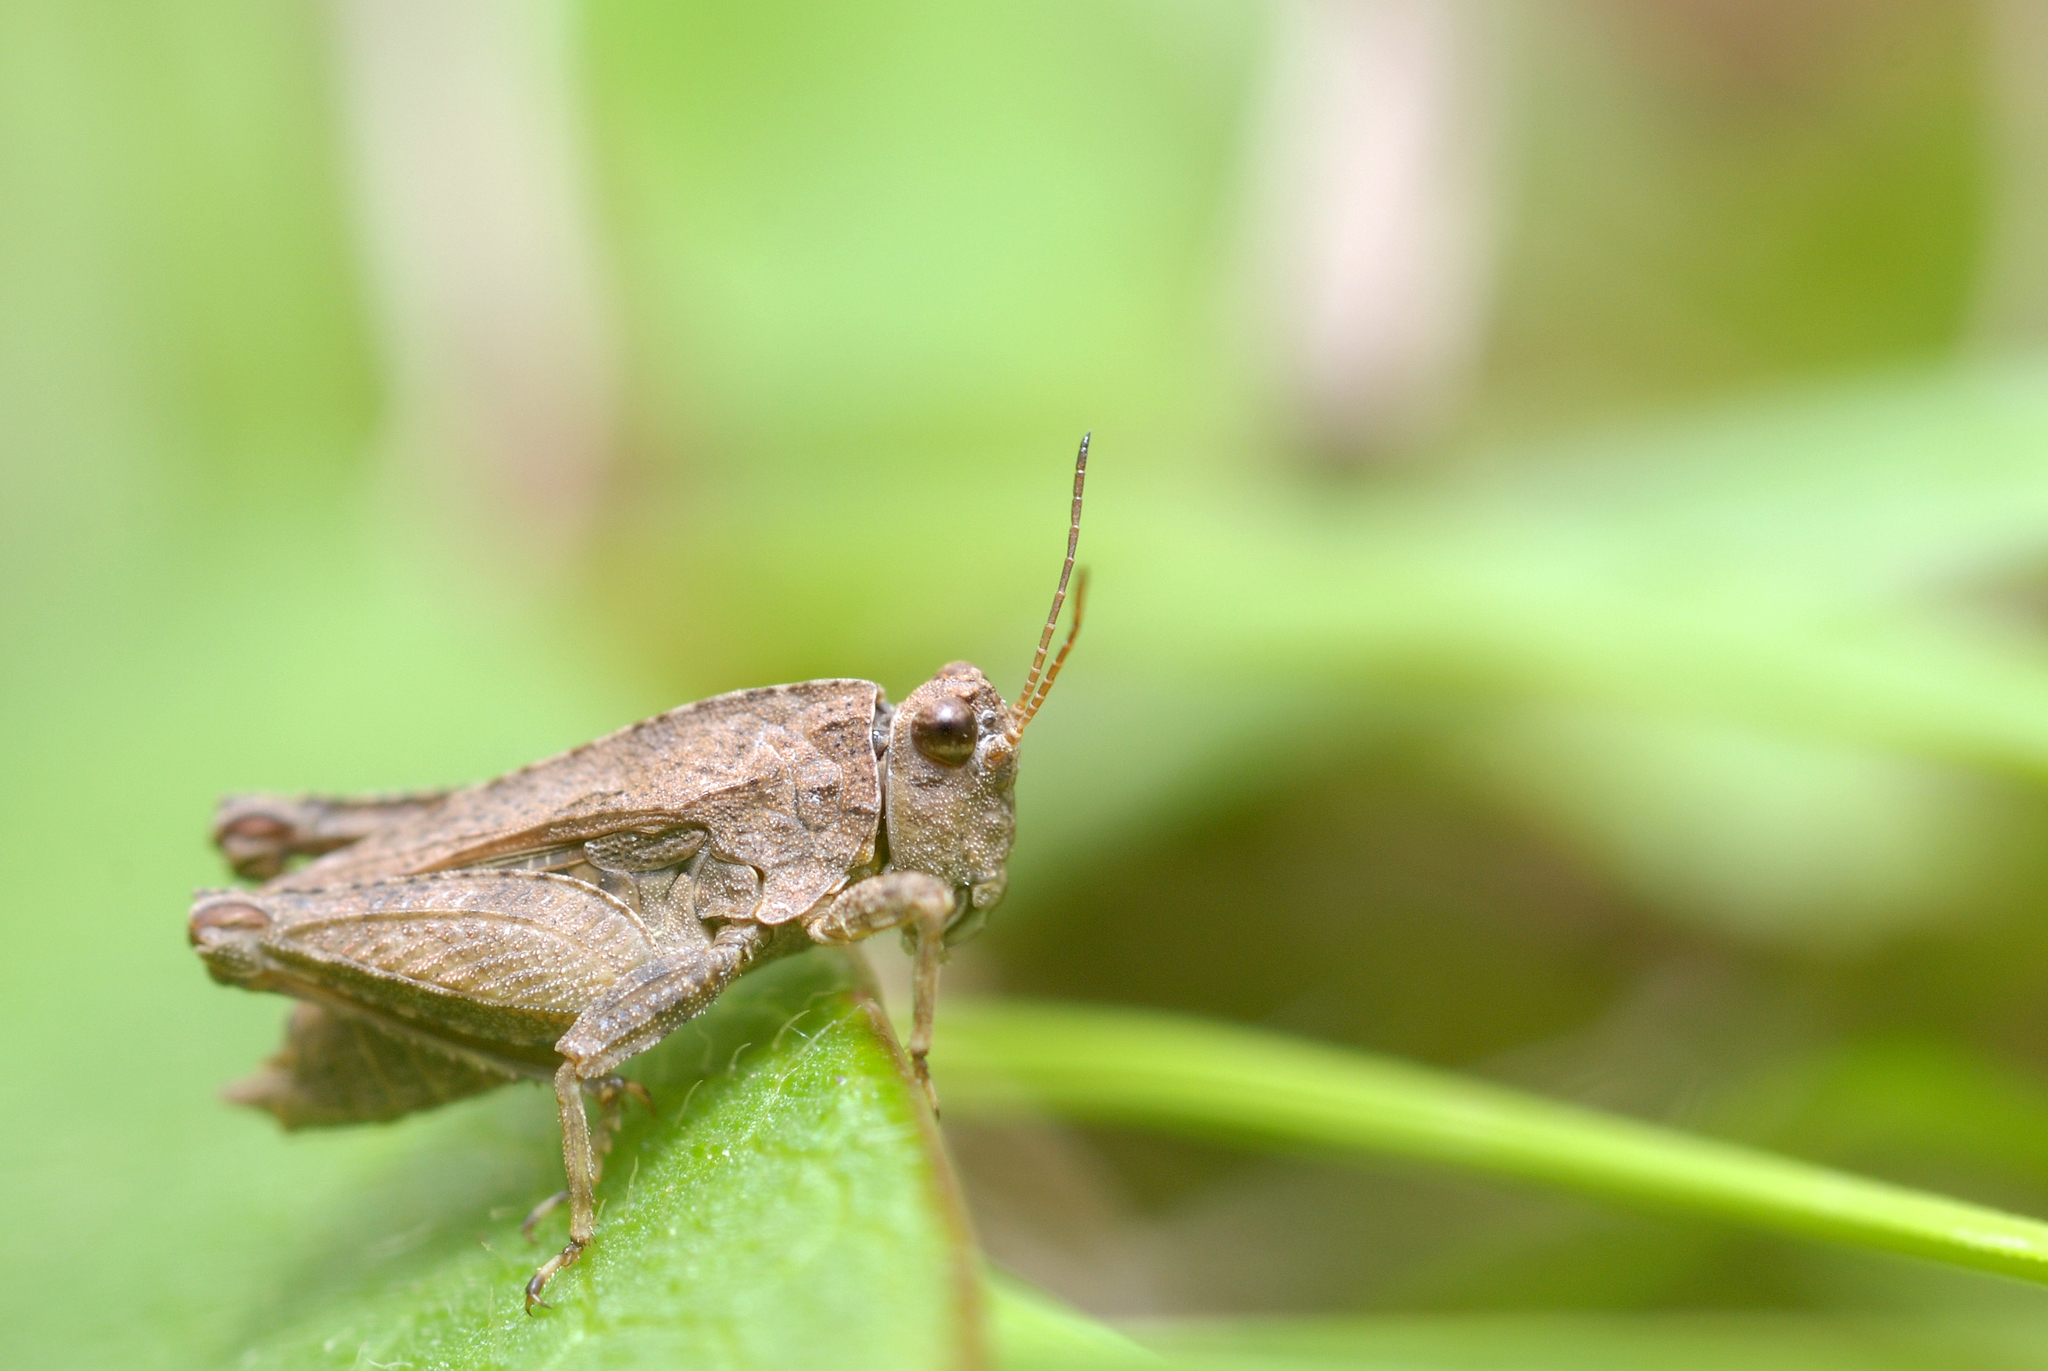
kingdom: Animalia
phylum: Arthropoda
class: Insecta
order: Orthoptera
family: Tetrigidae
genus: Tetrix
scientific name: Tetrix tenuicornis
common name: Long-horned groundhopper
